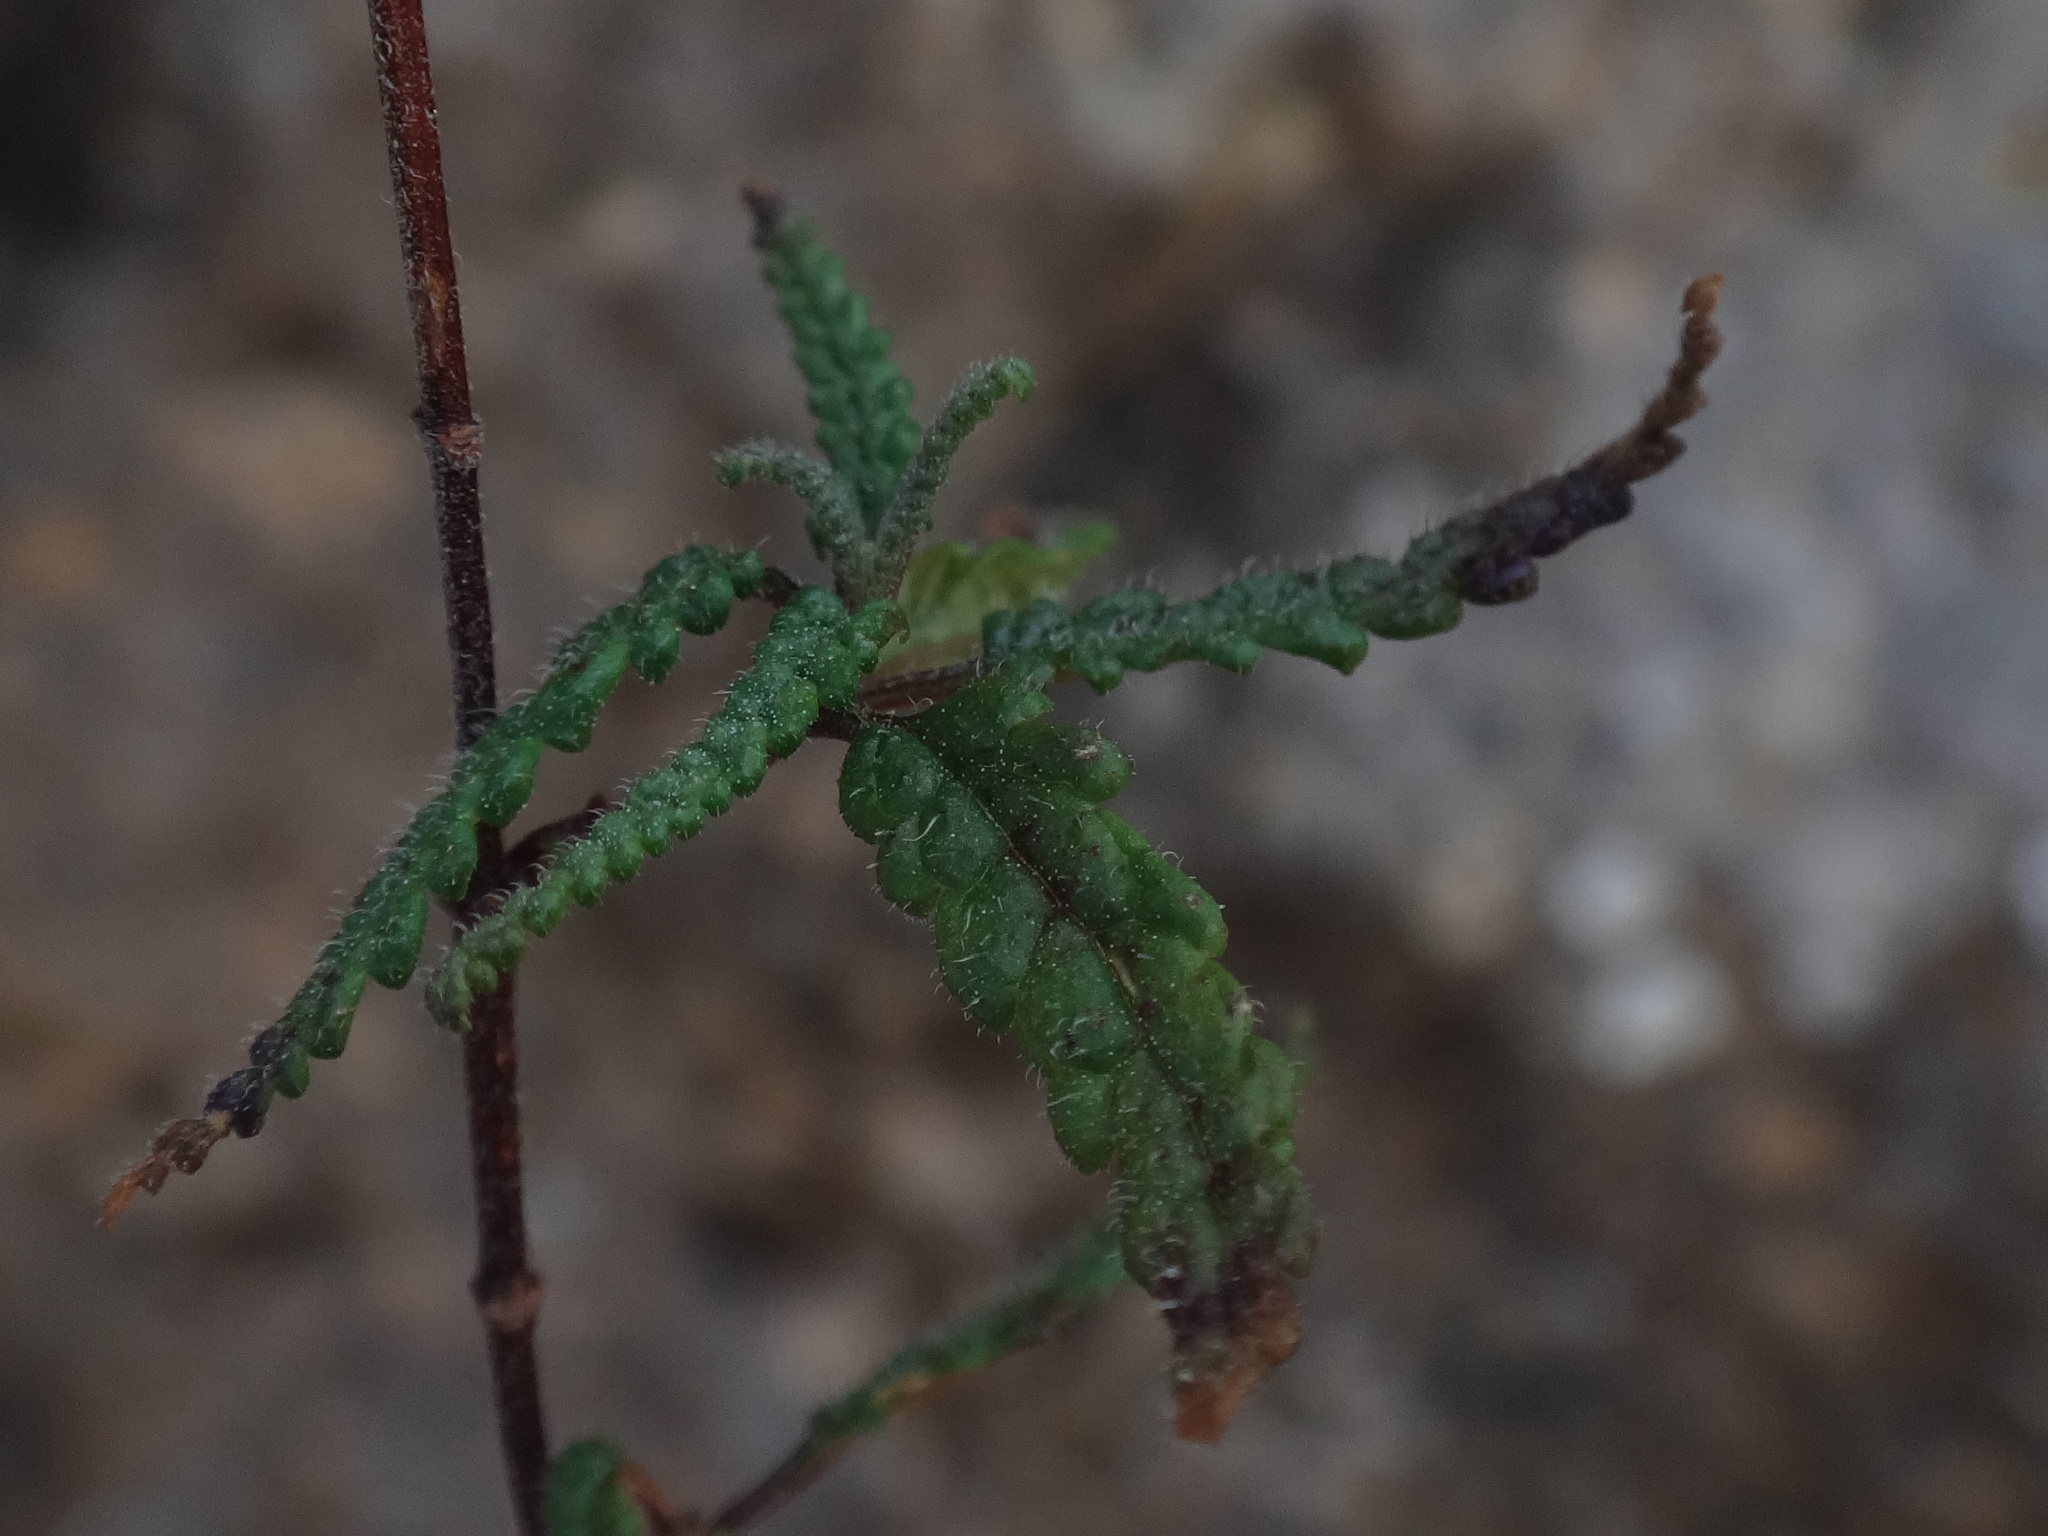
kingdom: Plantae
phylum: Tracheophyta
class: Magnoliopsida
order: Lamiales
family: Lamiaceae
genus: Teucrium
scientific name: Teucrium asiaticum
